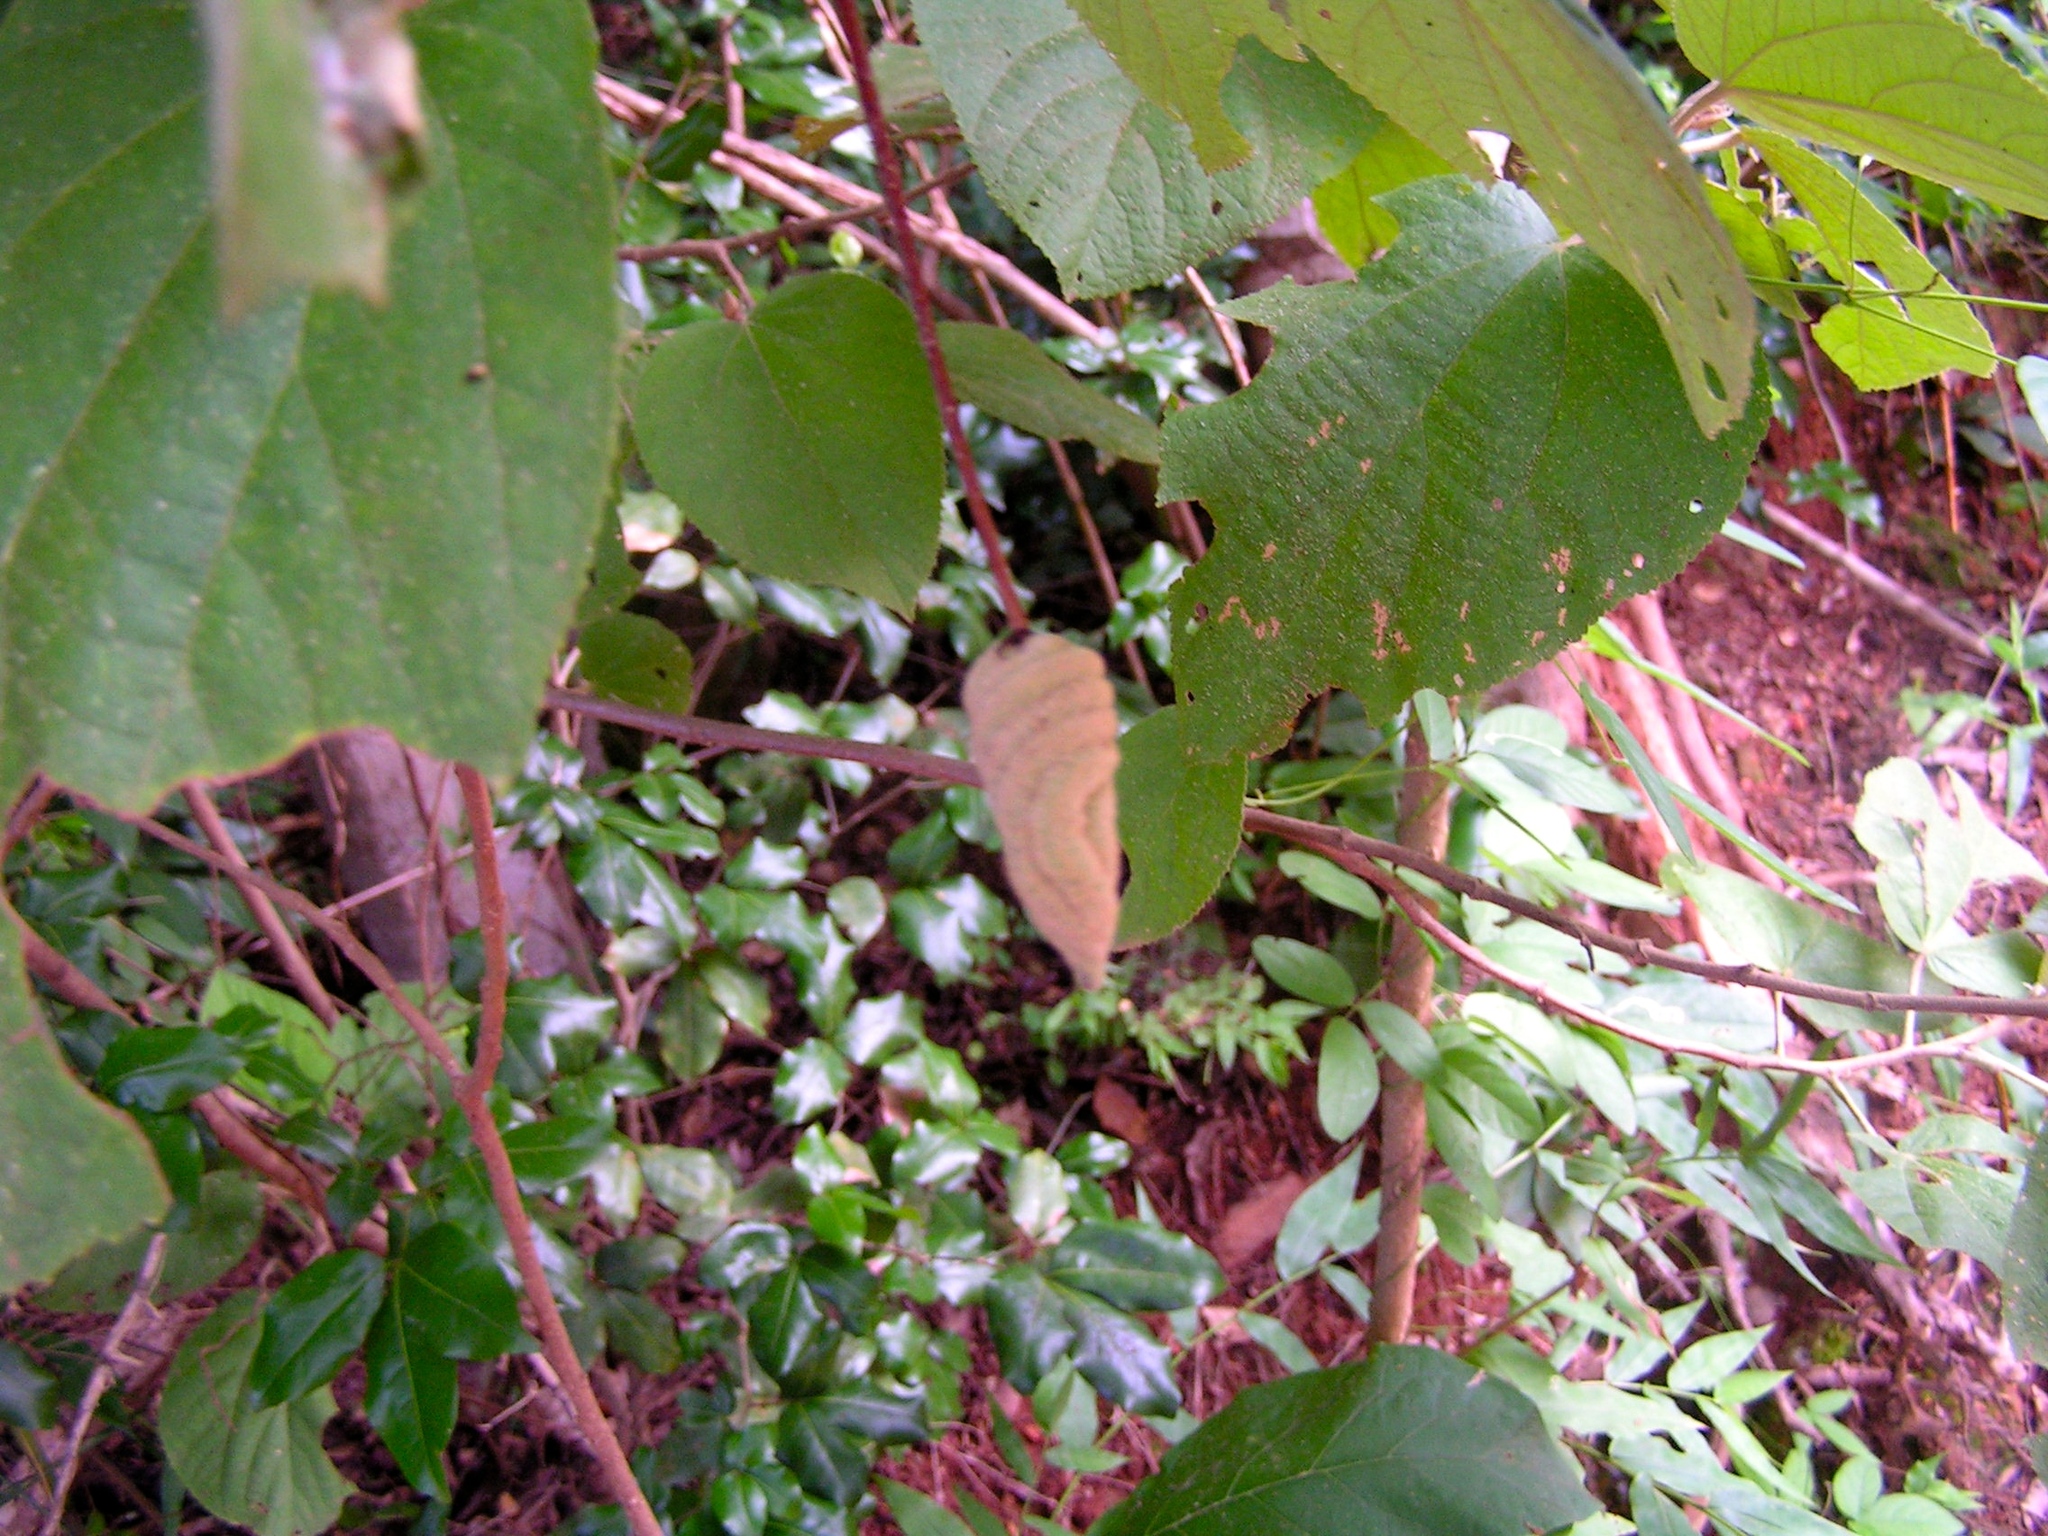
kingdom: Plantae
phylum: Tracheophyta
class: Magnoliopsida
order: Malvales
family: Malvaceae
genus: Helicteres
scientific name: Helicteres baruensis
